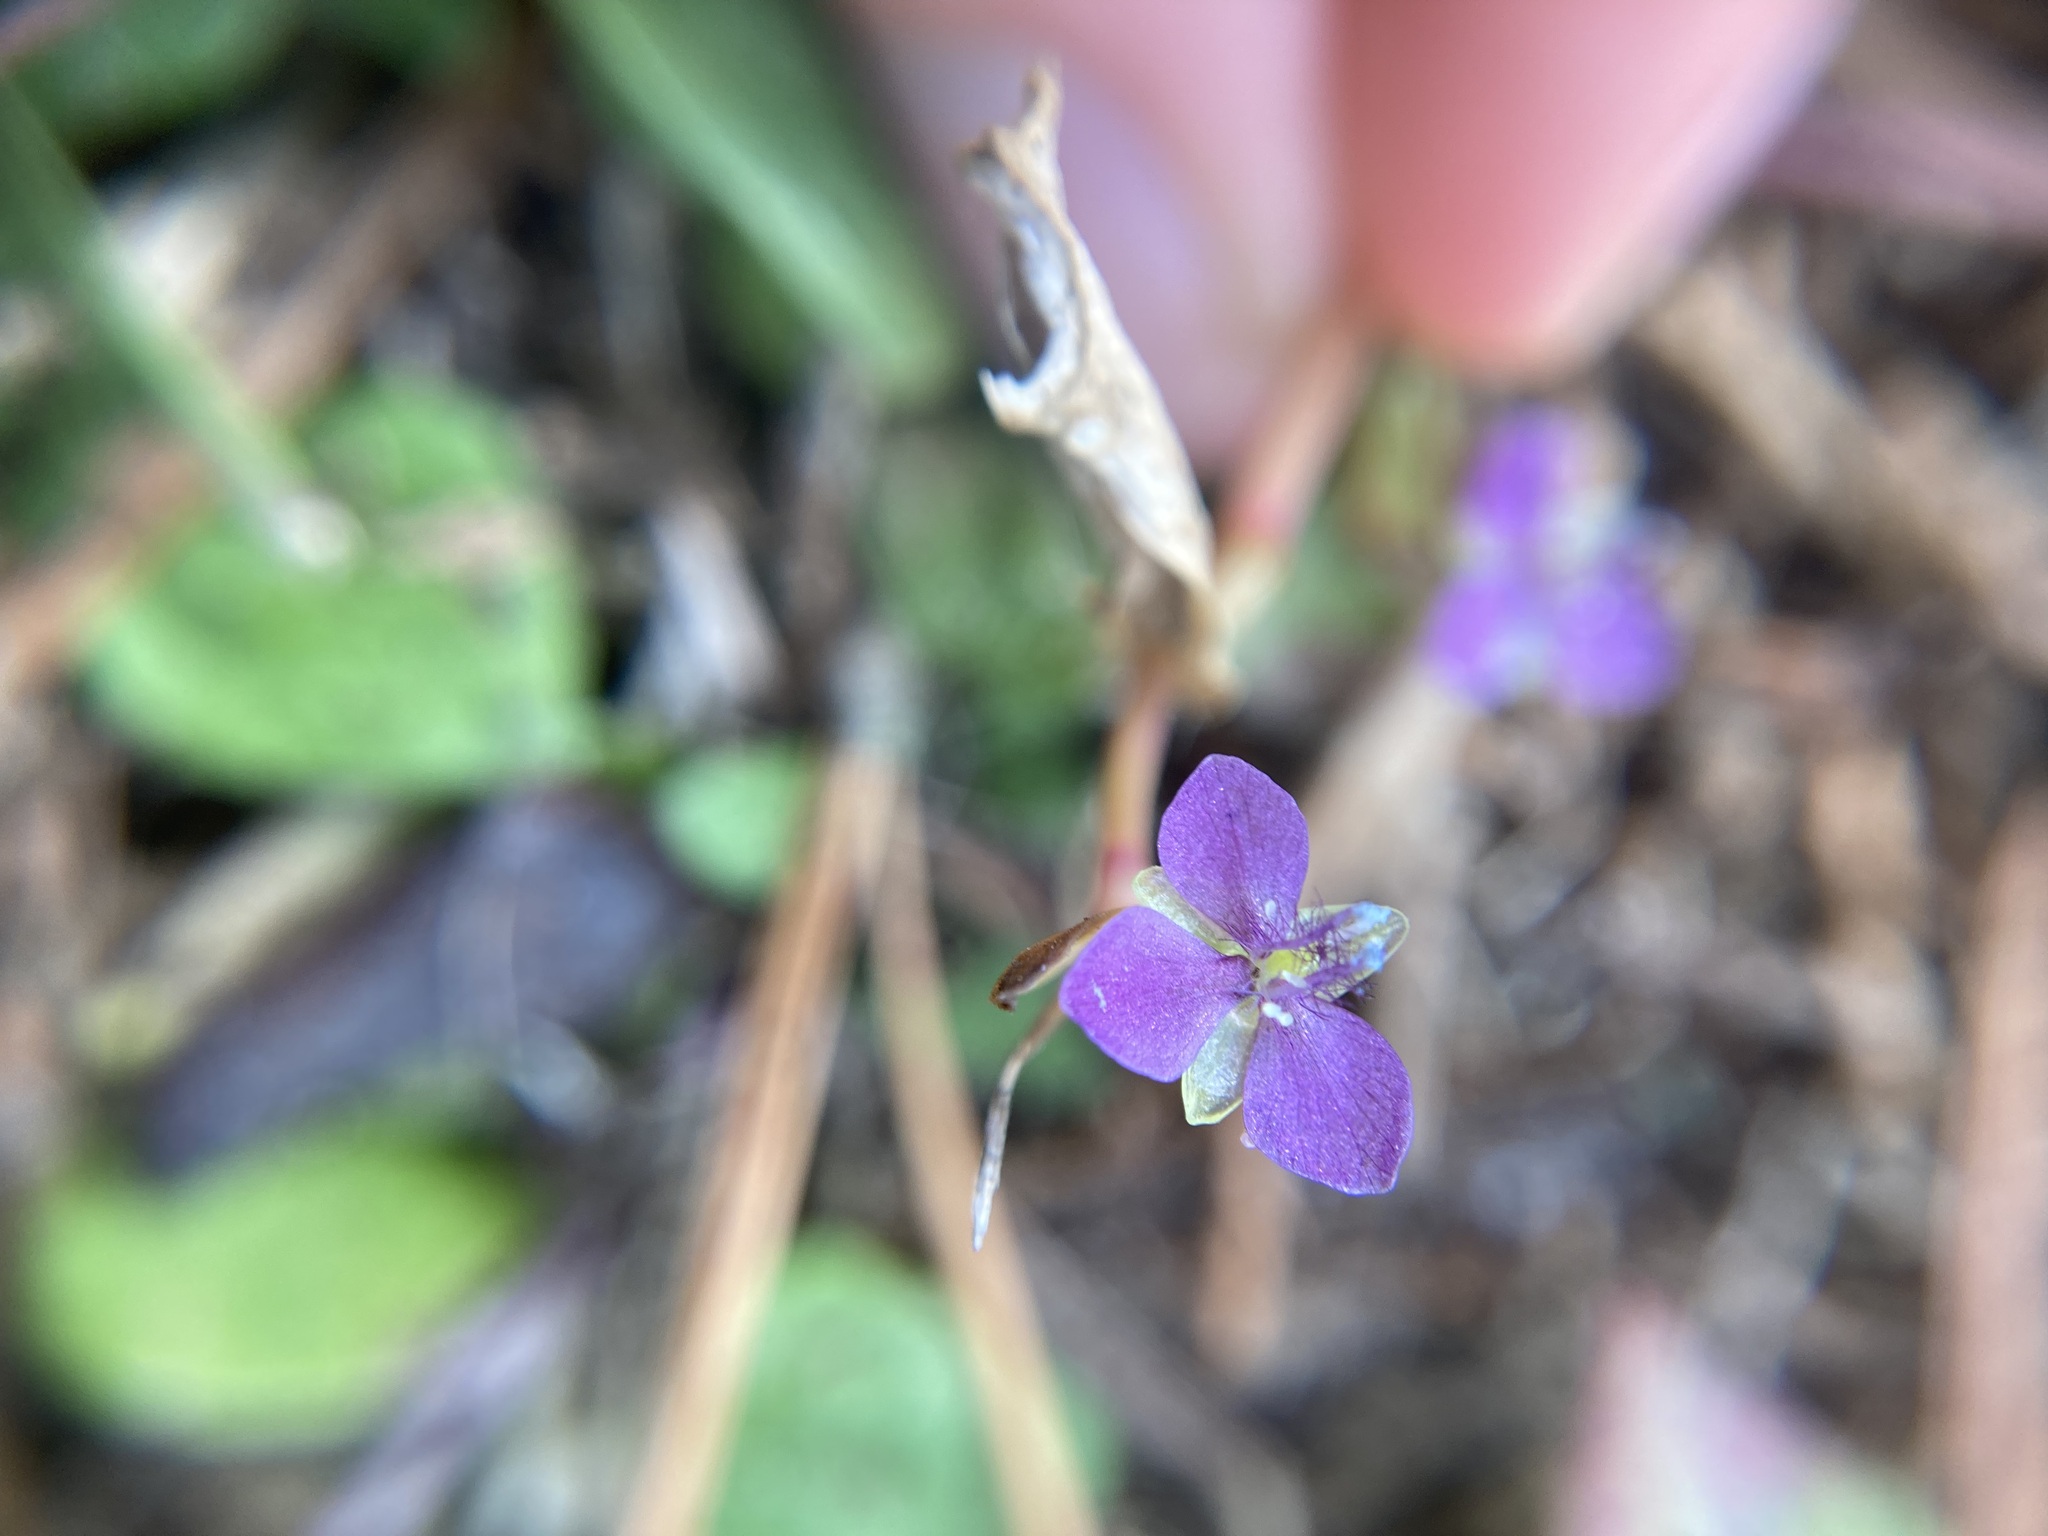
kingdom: Plantae
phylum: Tracheophyta
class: Liliopsida
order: Commelinales
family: Commelinaceae
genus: Murdannia
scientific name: Murdannia nudiflora
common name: Nakedstem dewflower
